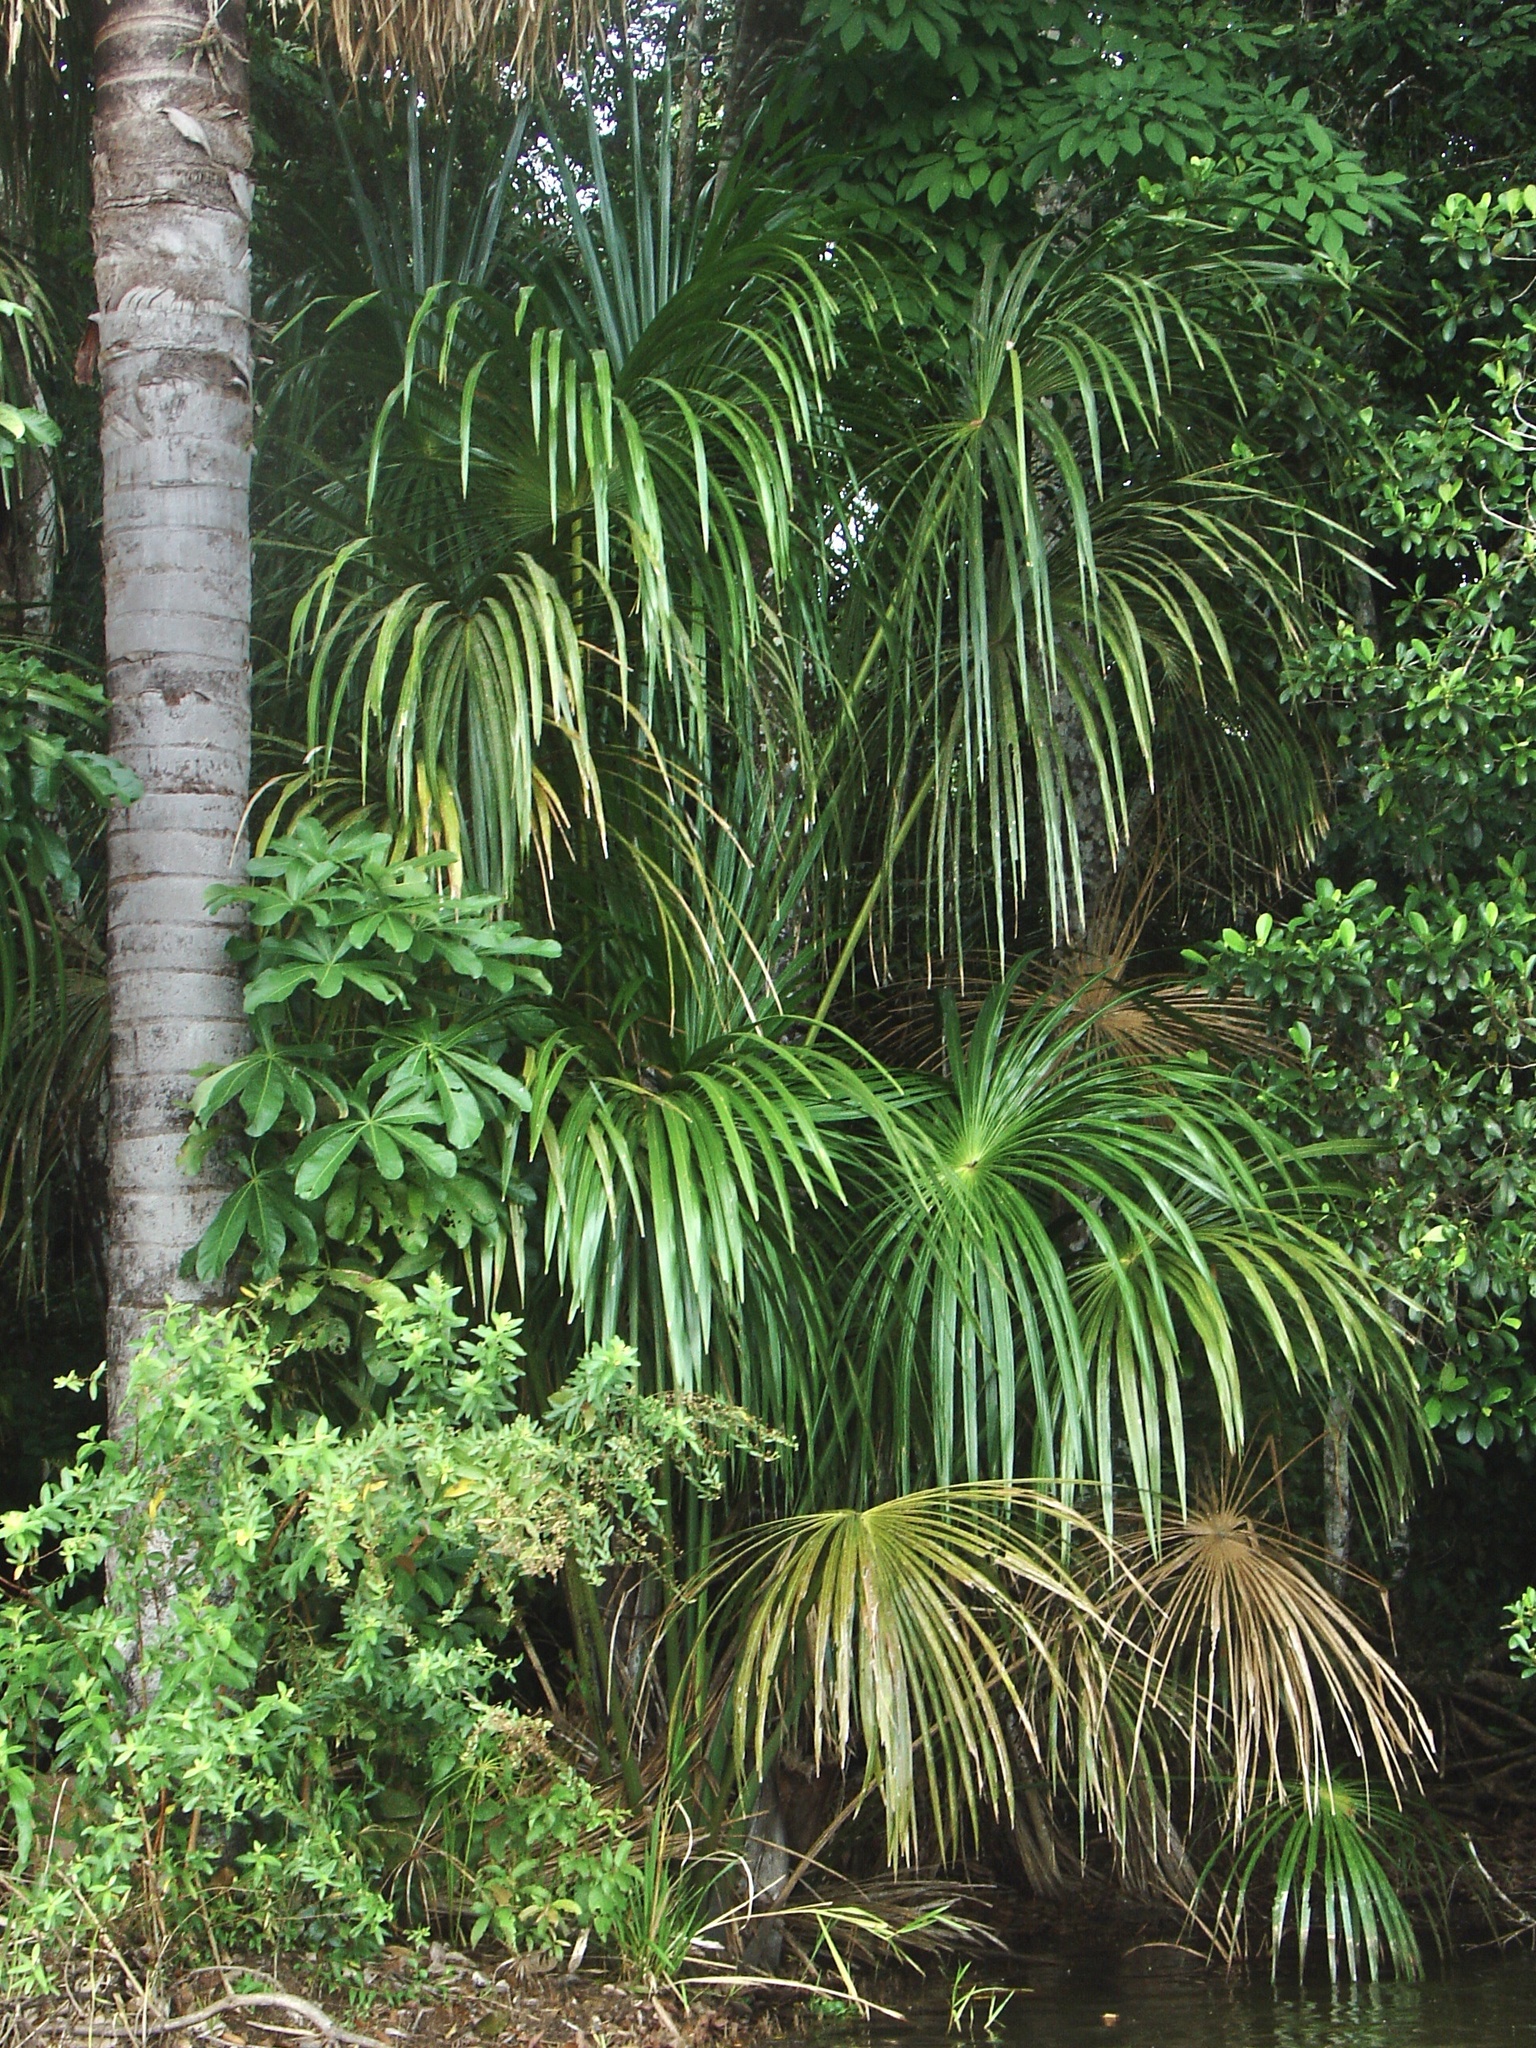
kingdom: Plantae
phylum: Tracheophyta
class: Liliopsida
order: Arecales
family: Arecaceae
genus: Mauritia
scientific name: Mauritia flexuosa
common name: Tree-of-life
